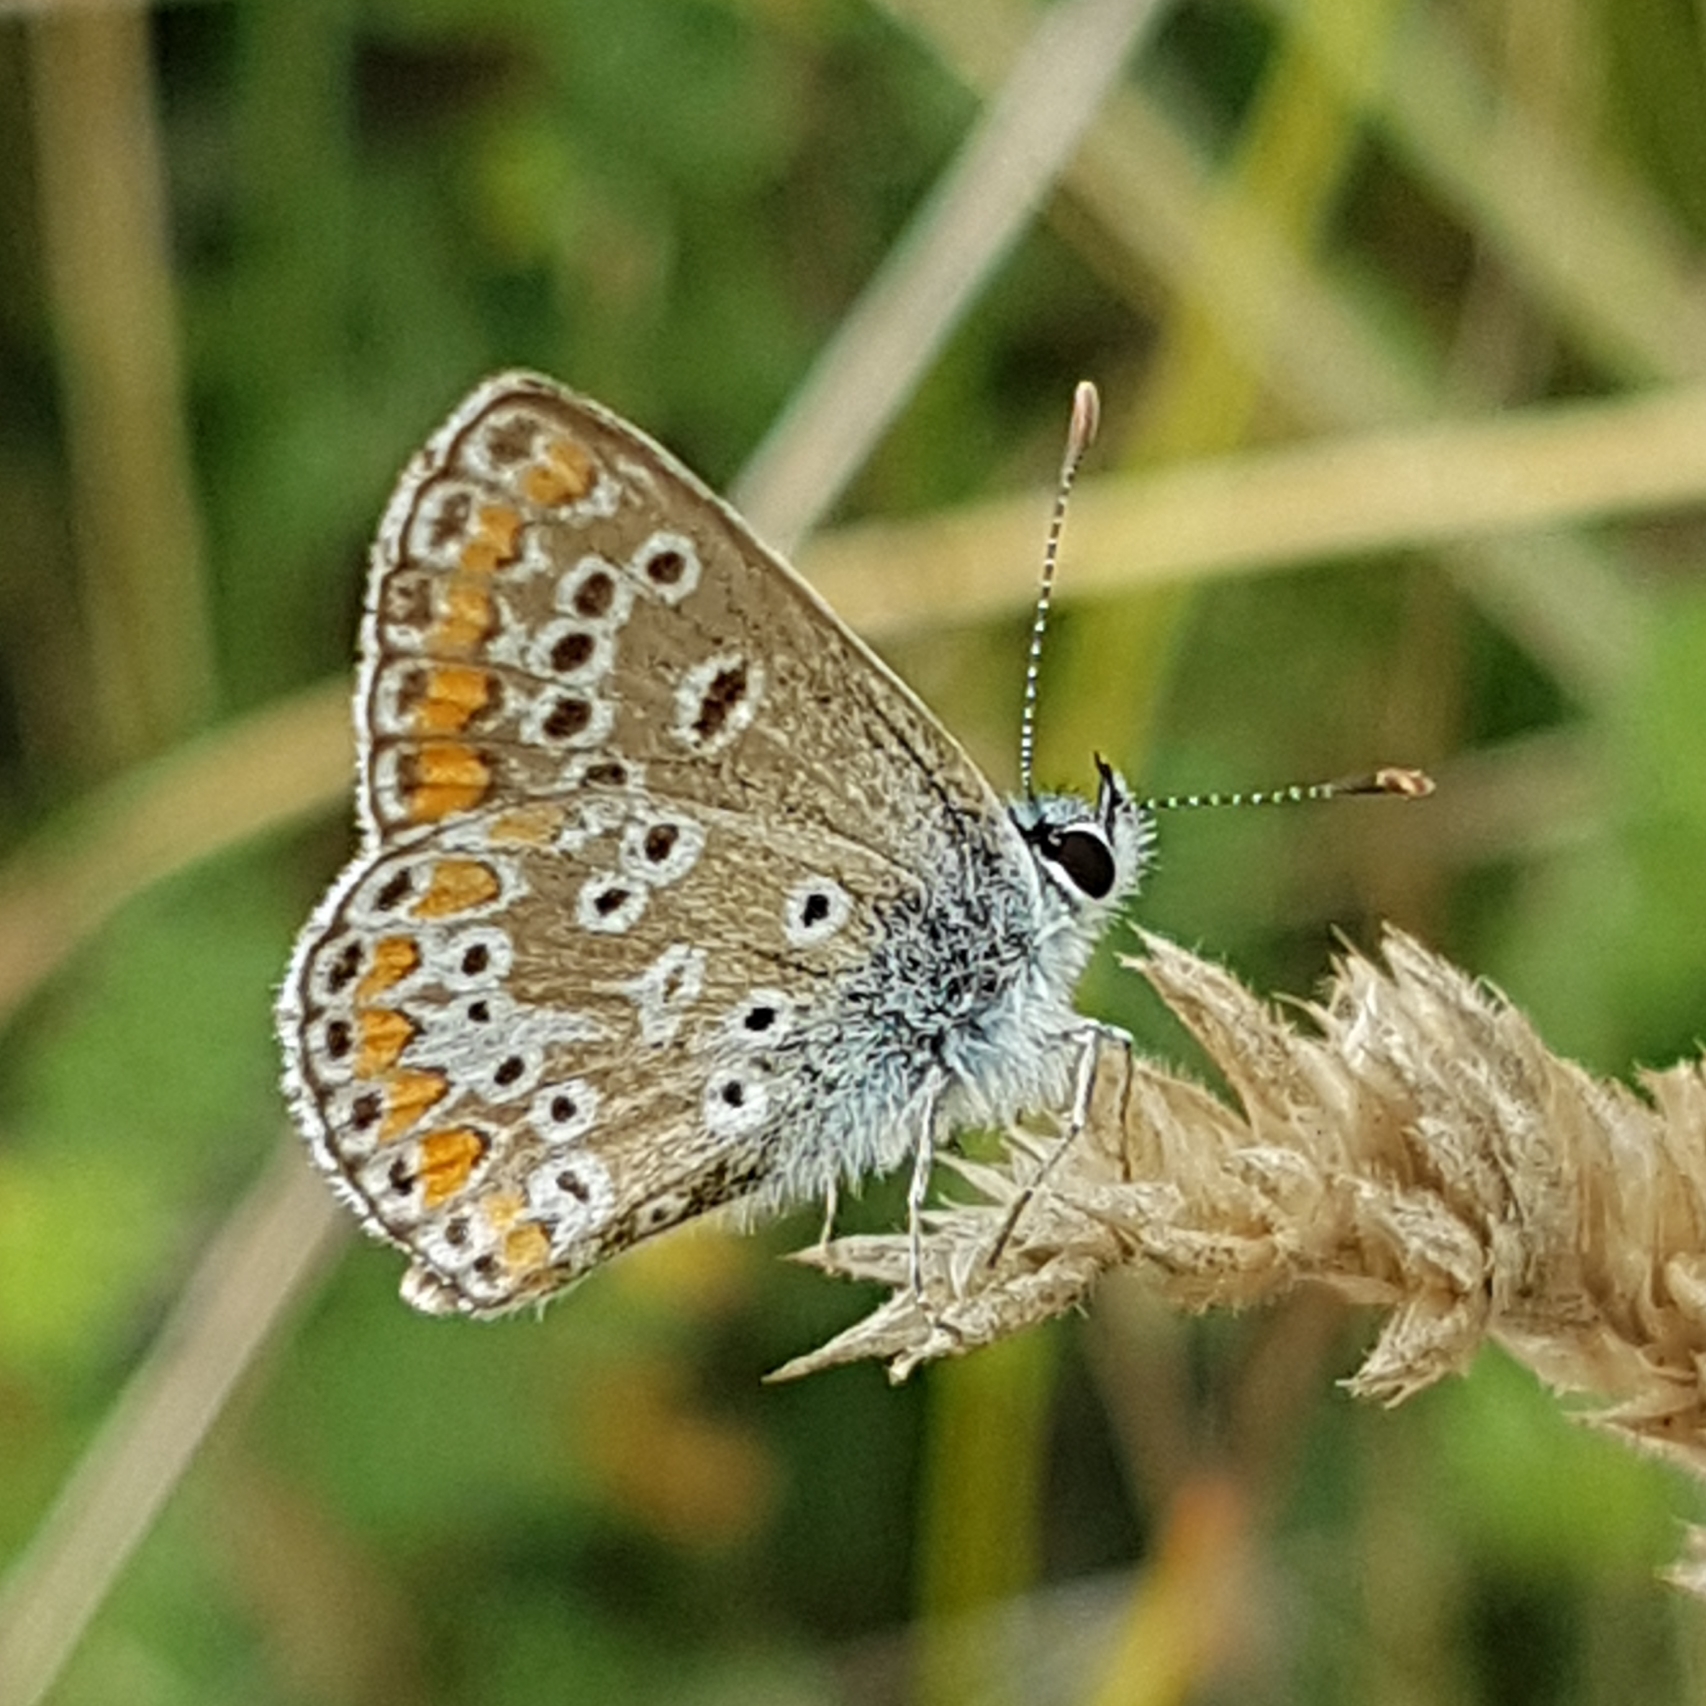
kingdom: Animalia
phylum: Arthropoda
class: Insecta
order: Lepidoptera
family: Lycaenidae
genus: Aricia
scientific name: Aricia agestis
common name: Brown argus
